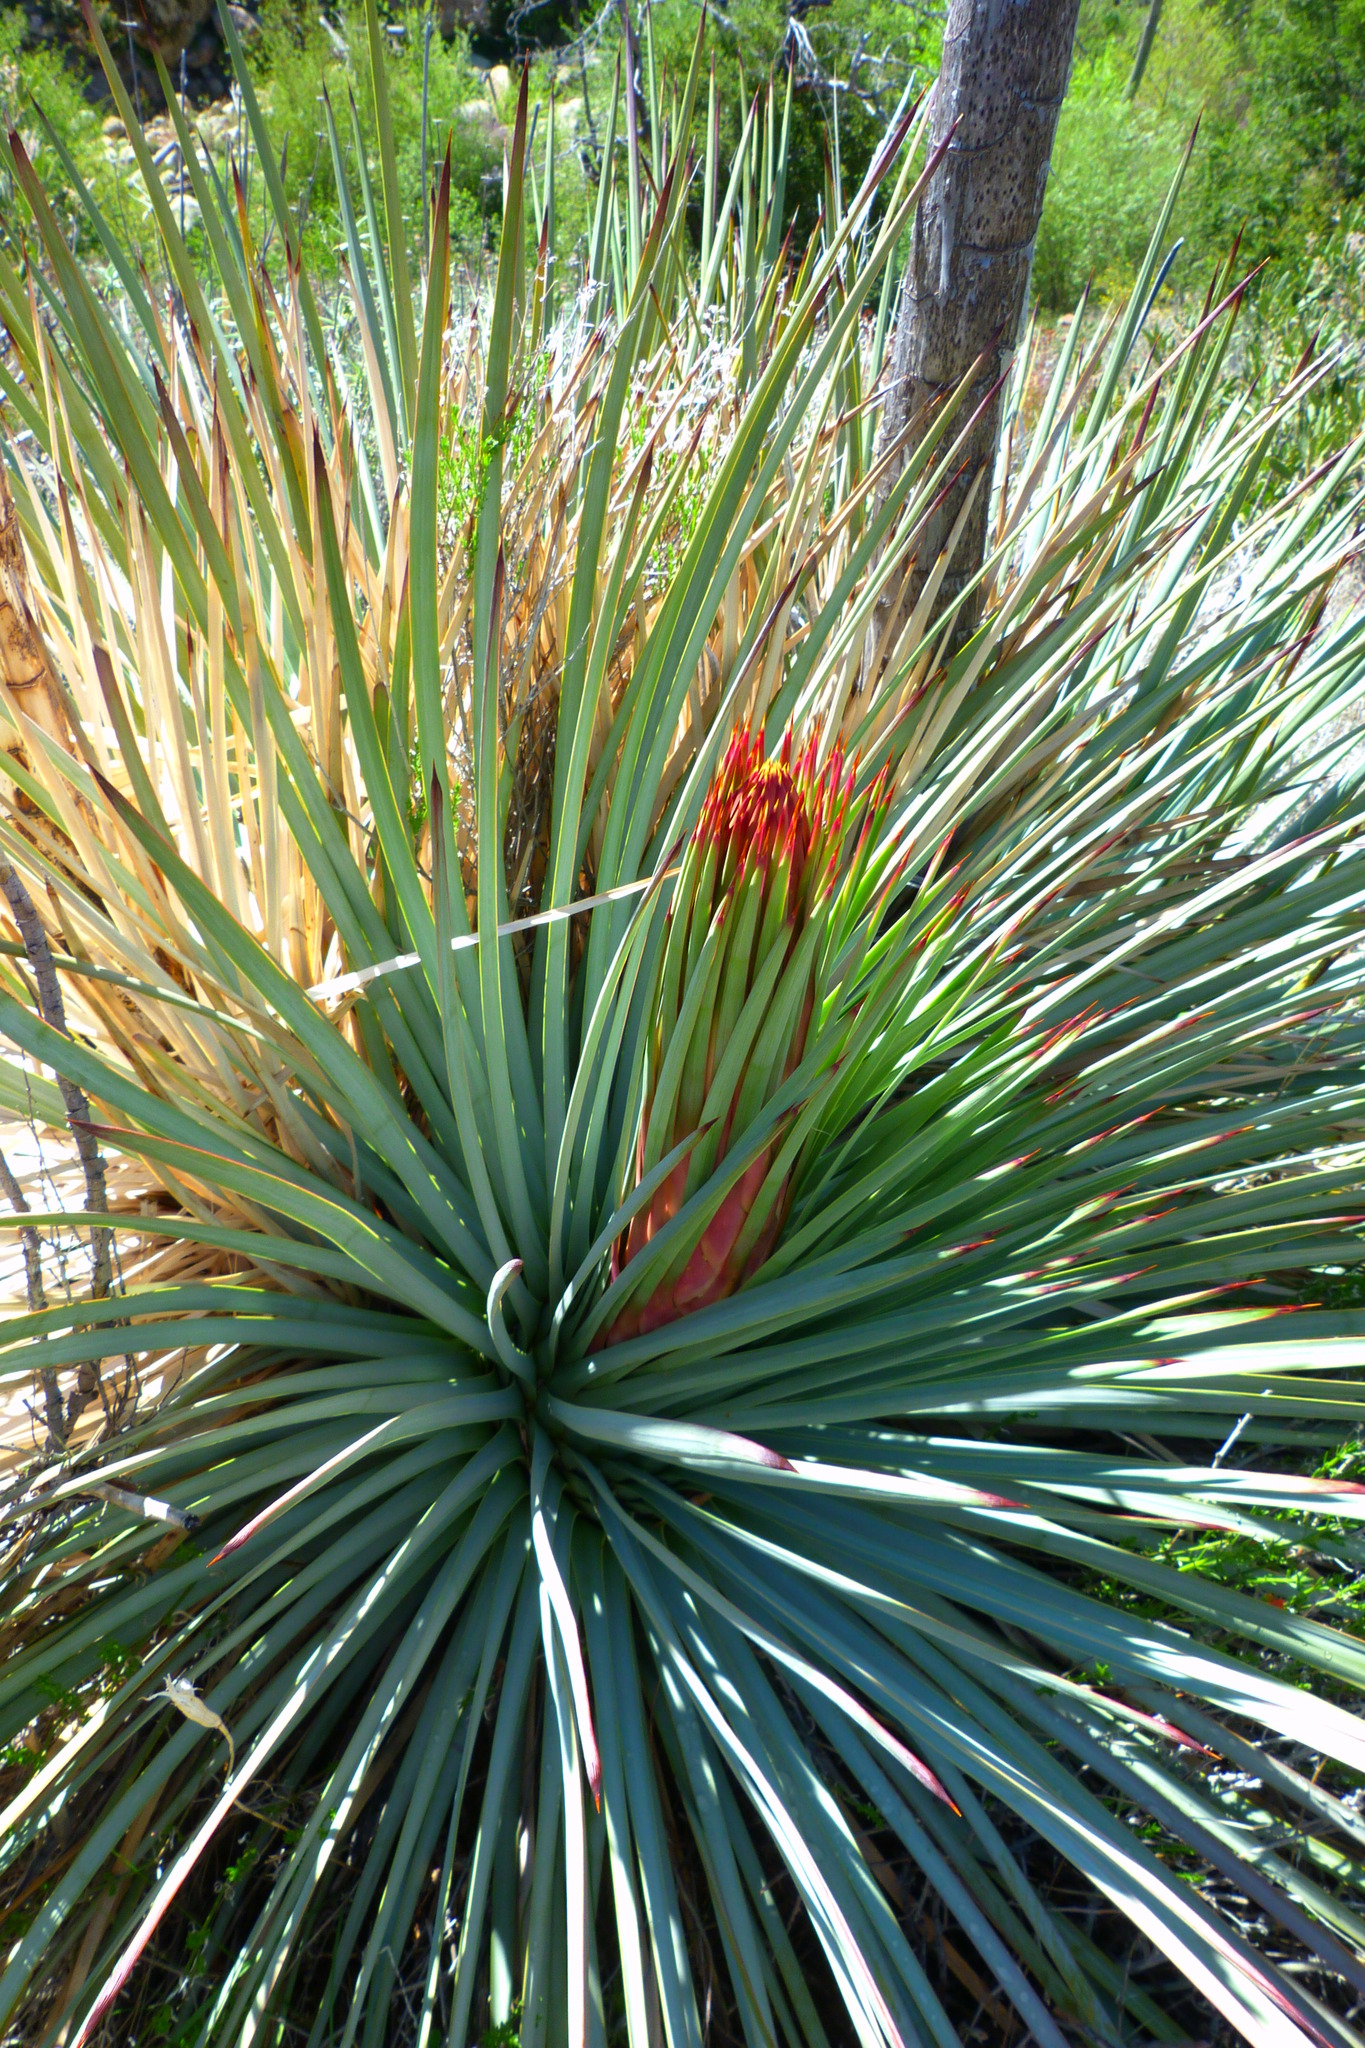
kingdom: Plantae
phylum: Tracheophyta
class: Liliopsida
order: Asparagales
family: Asparagaceae
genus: Hesperoyucca
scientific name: Hesperoyucca whipplei
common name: Our lord's-candle
